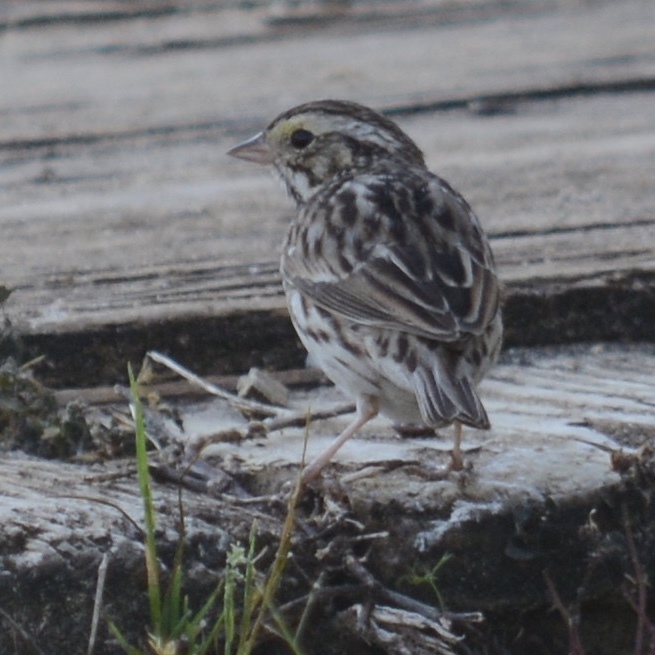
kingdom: Animalia
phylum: Chordata
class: Aves
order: Passeriformes
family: Passerellidae
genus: Passerculus
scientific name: Passerculus sandwichensis
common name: Savannah sparrow
